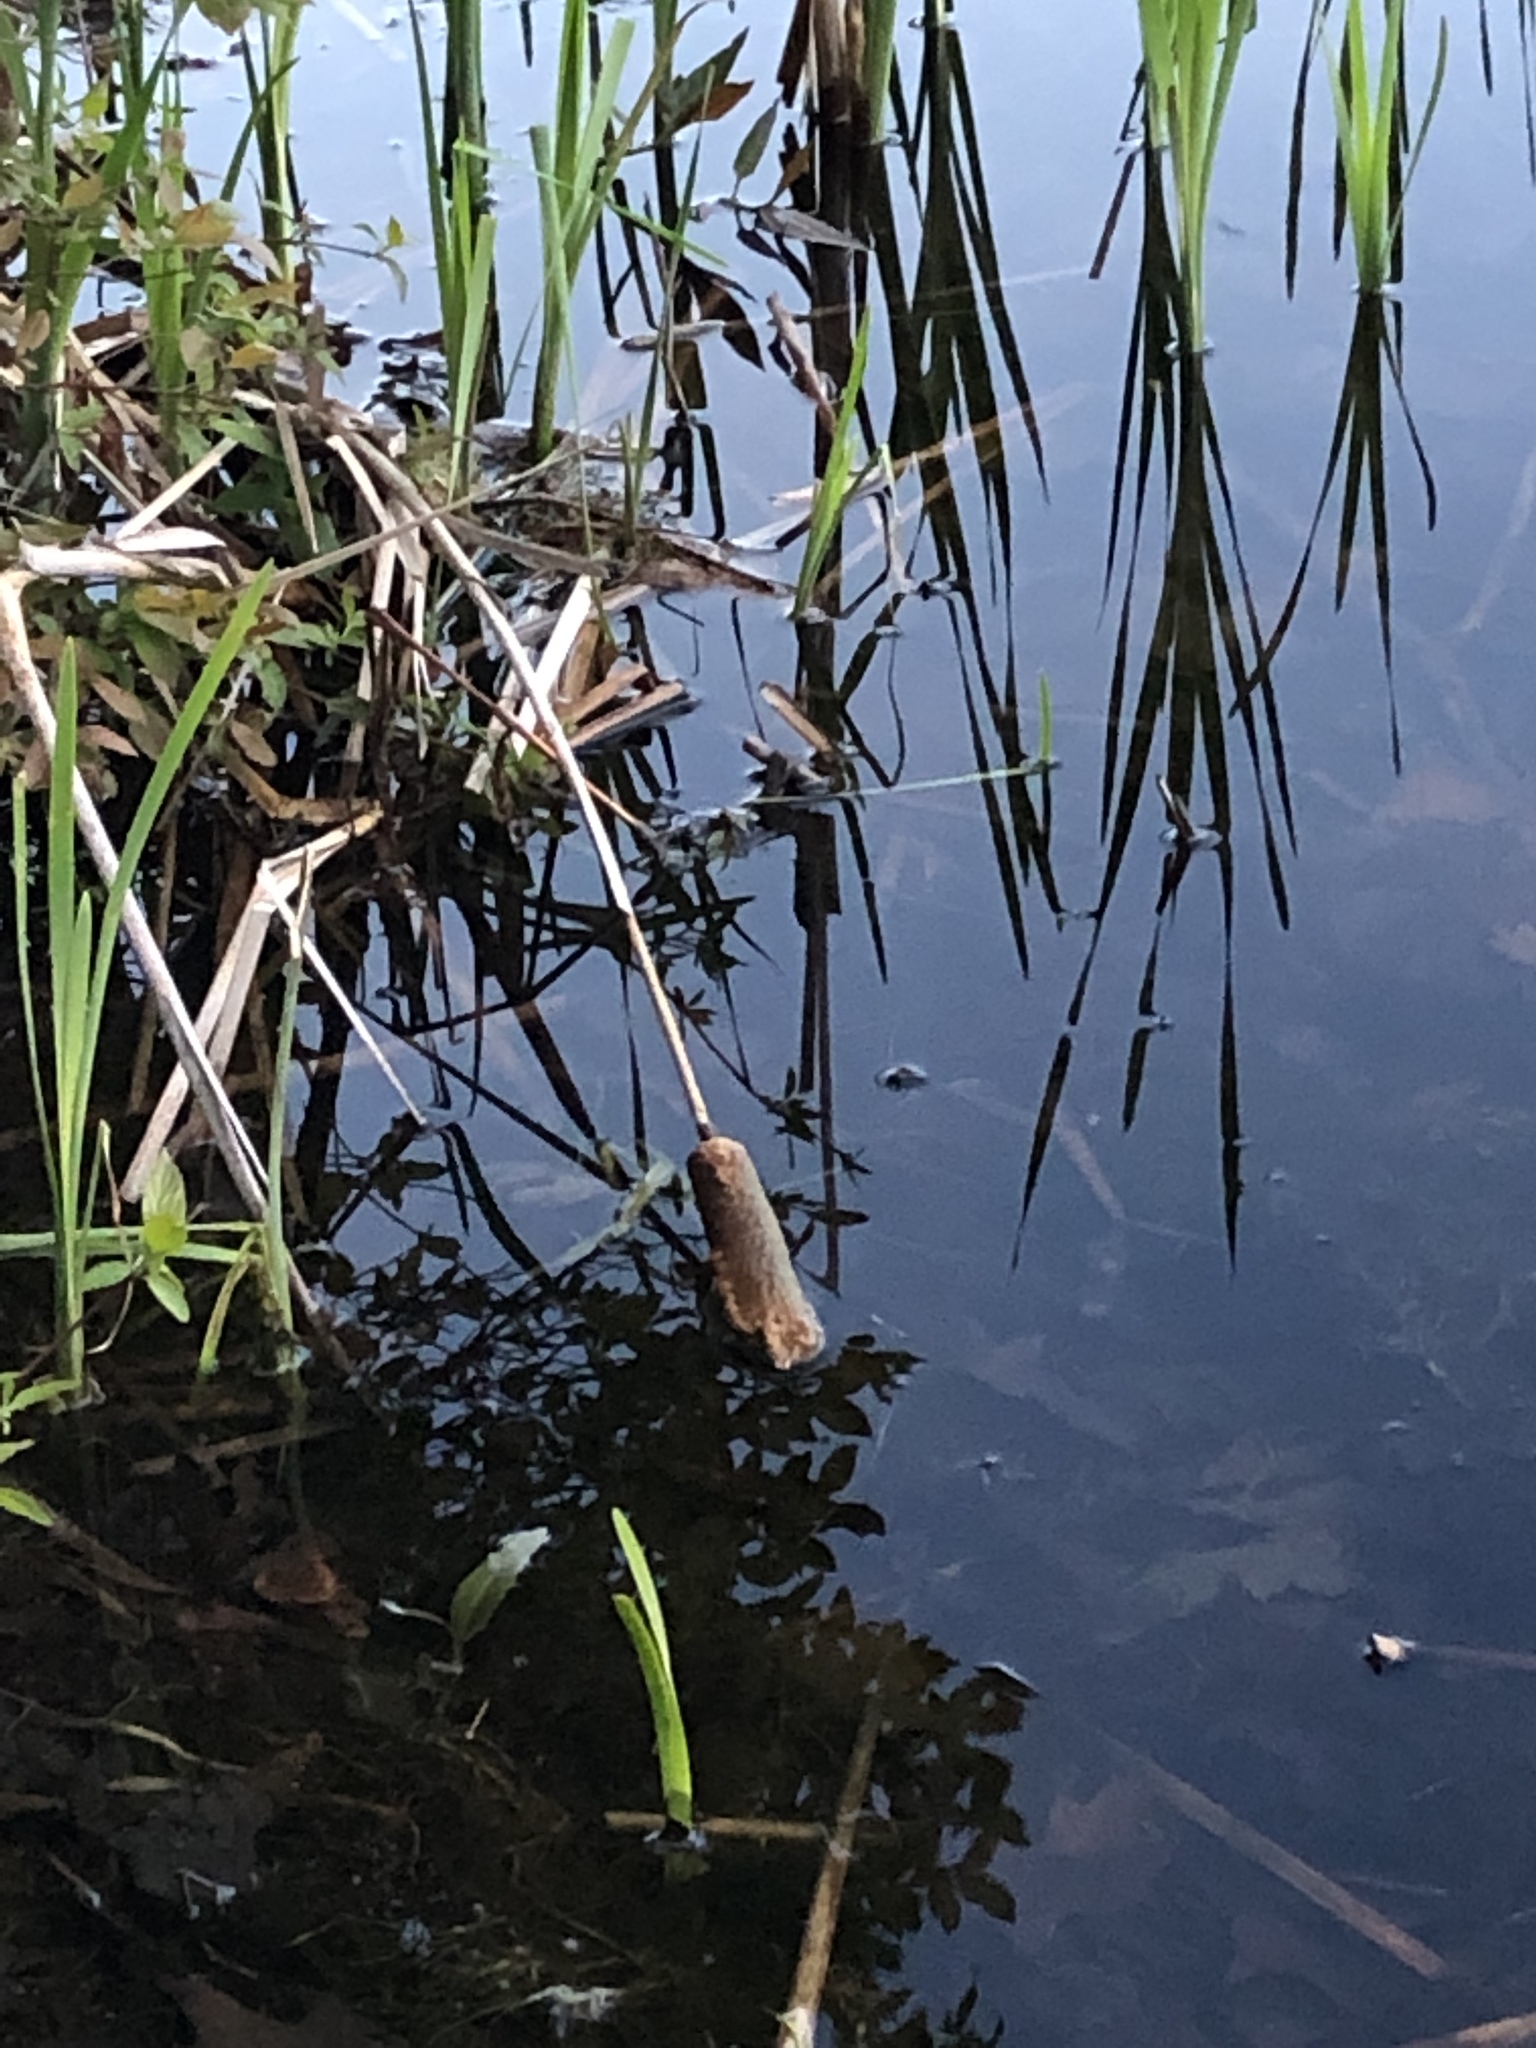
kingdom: Plantae
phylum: Tracheophyta
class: Liliopsida
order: Poales
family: Typhaceae
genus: Typha
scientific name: Typha latifolia
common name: Broadleaf cattail
